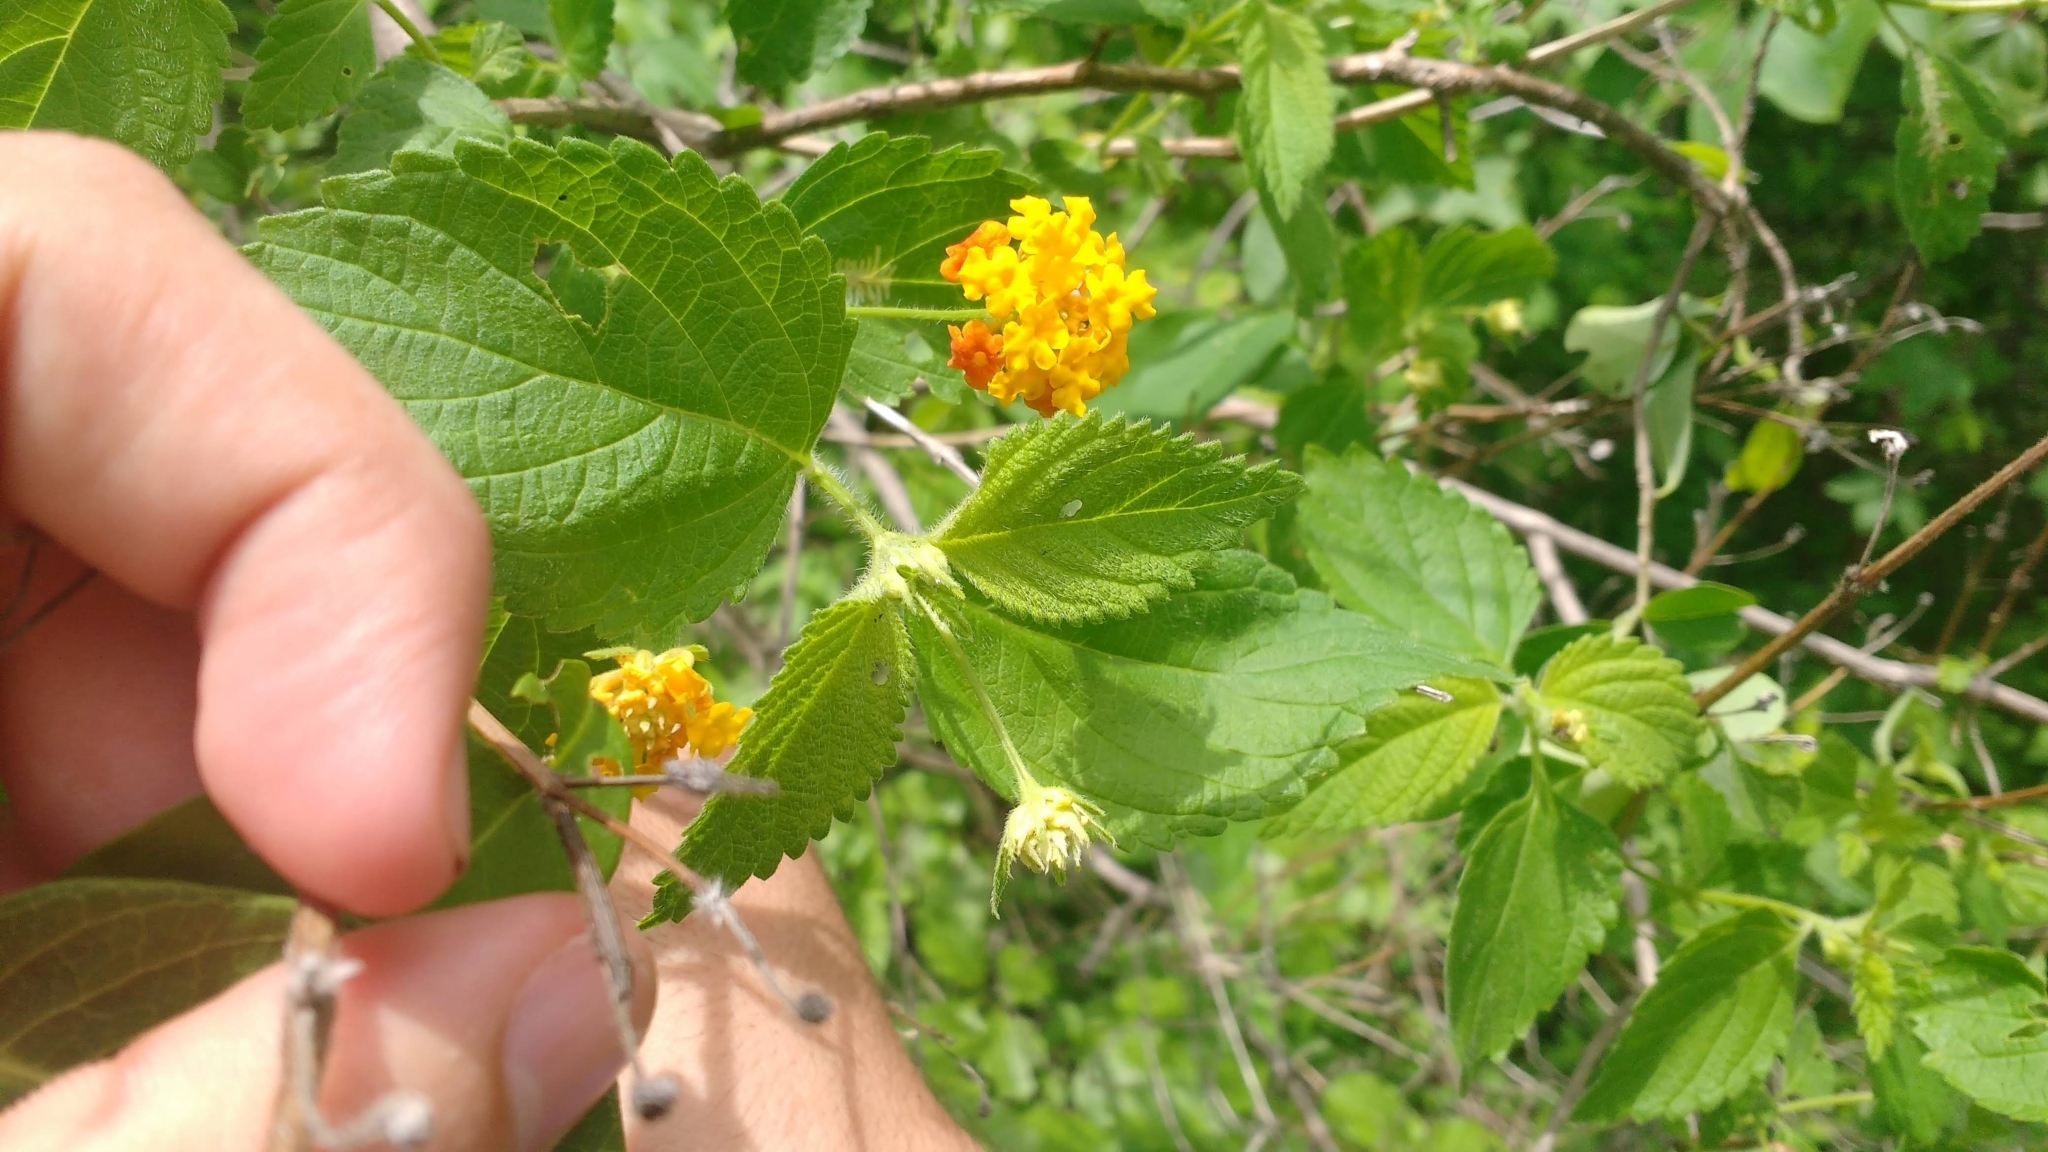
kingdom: Plantae
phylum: Tracheophyta
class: Magnoliopsida
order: Lamiales
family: Verbenaceae
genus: Lantana
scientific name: Lantana camara
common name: Lantana
